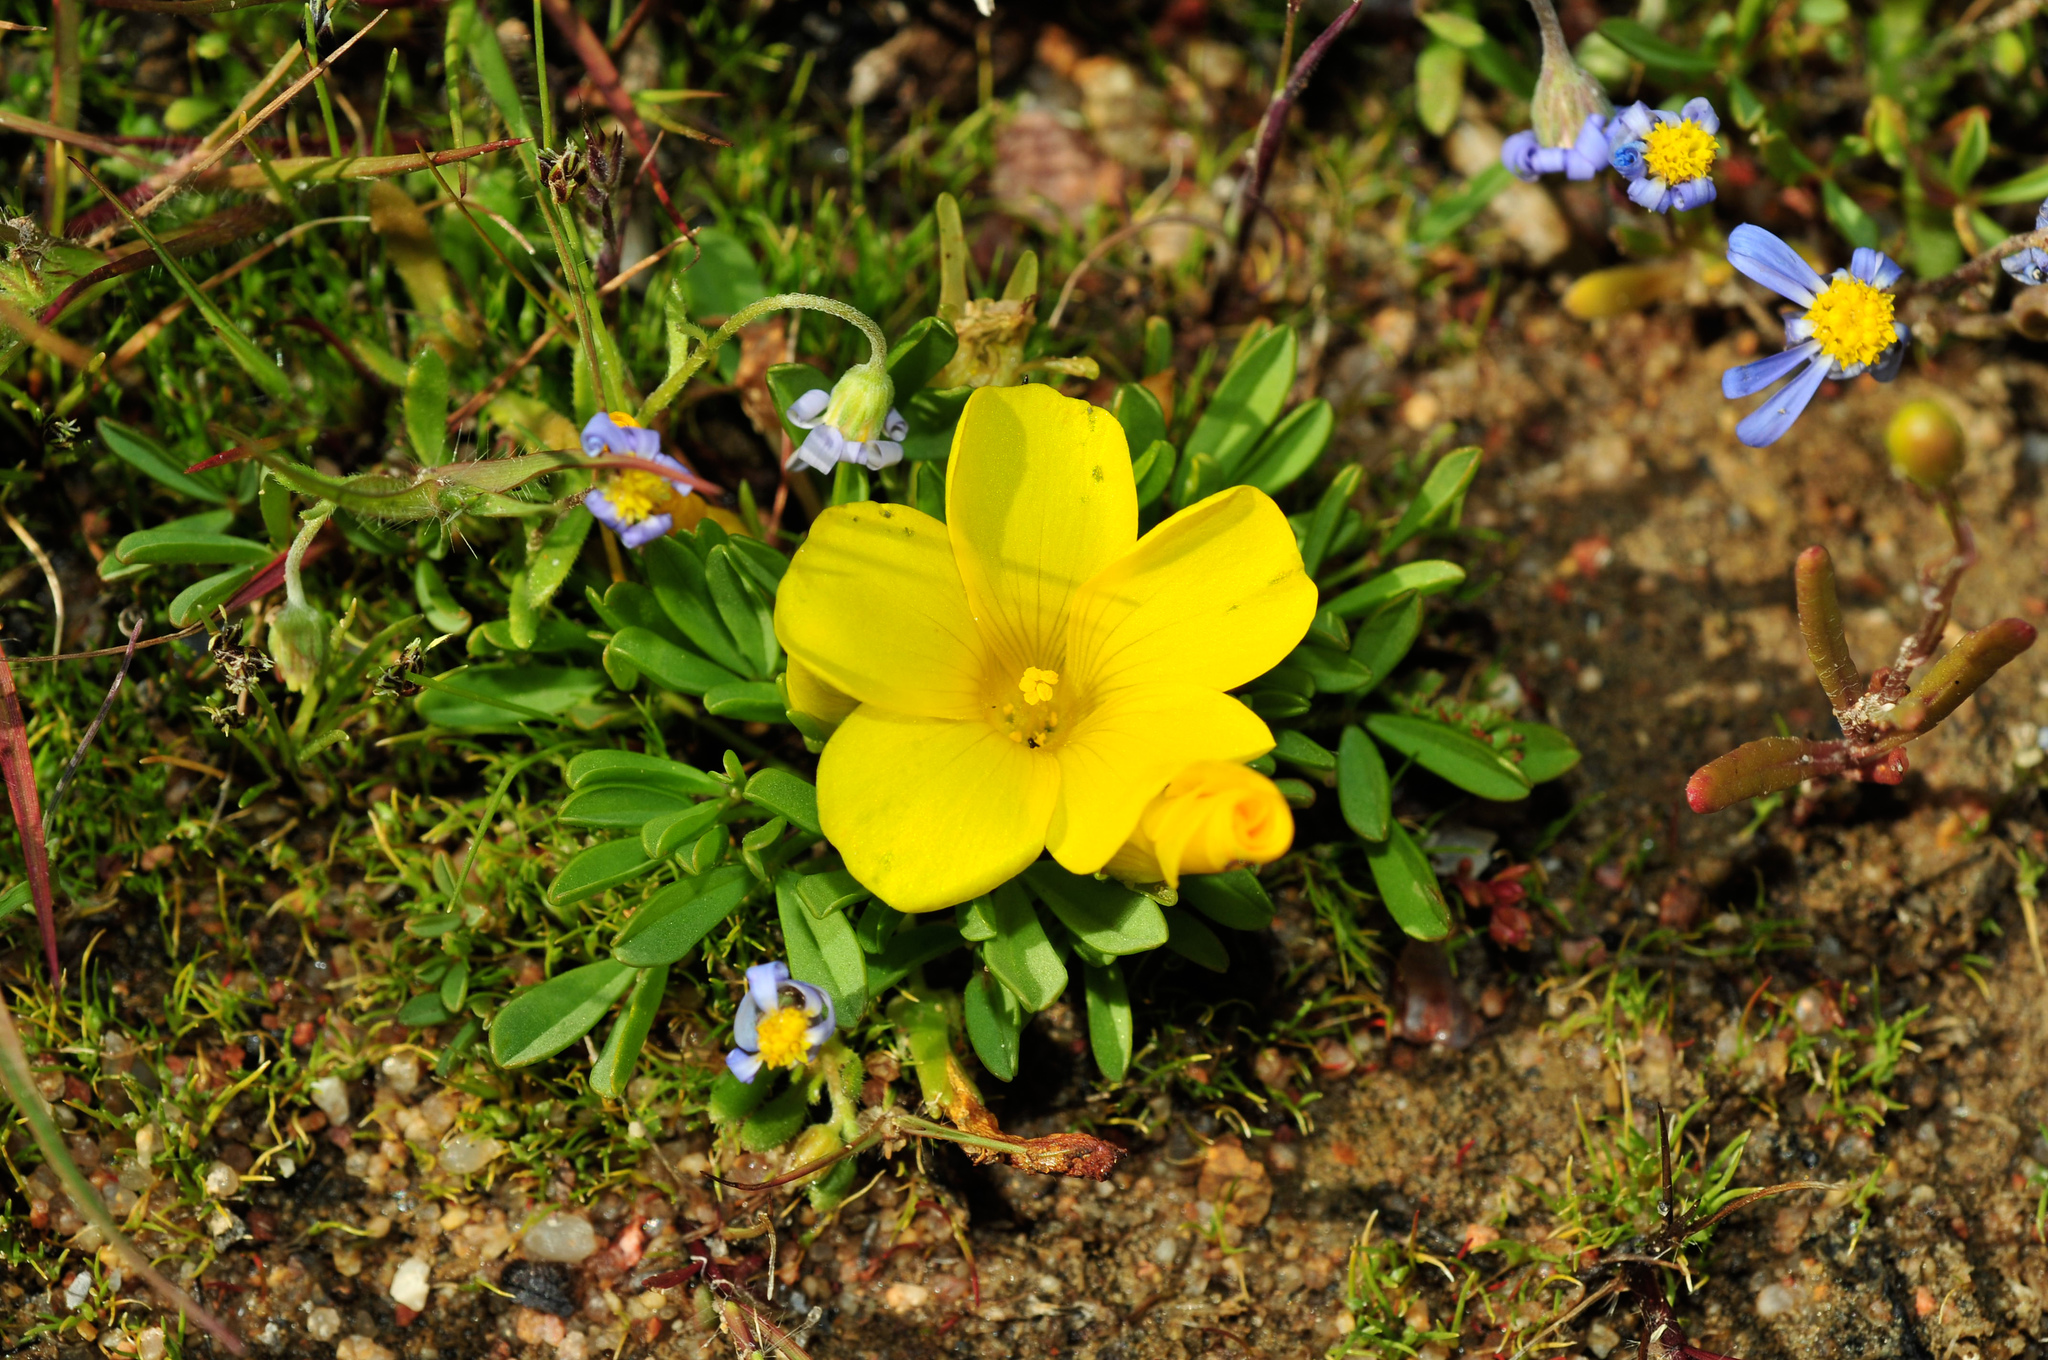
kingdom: Plantae
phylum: Tracheophyta
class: Magnoliopsida
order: Oxalidales
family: Oxalidaceae
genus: Oxalis
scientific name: Oxalis namaquana
